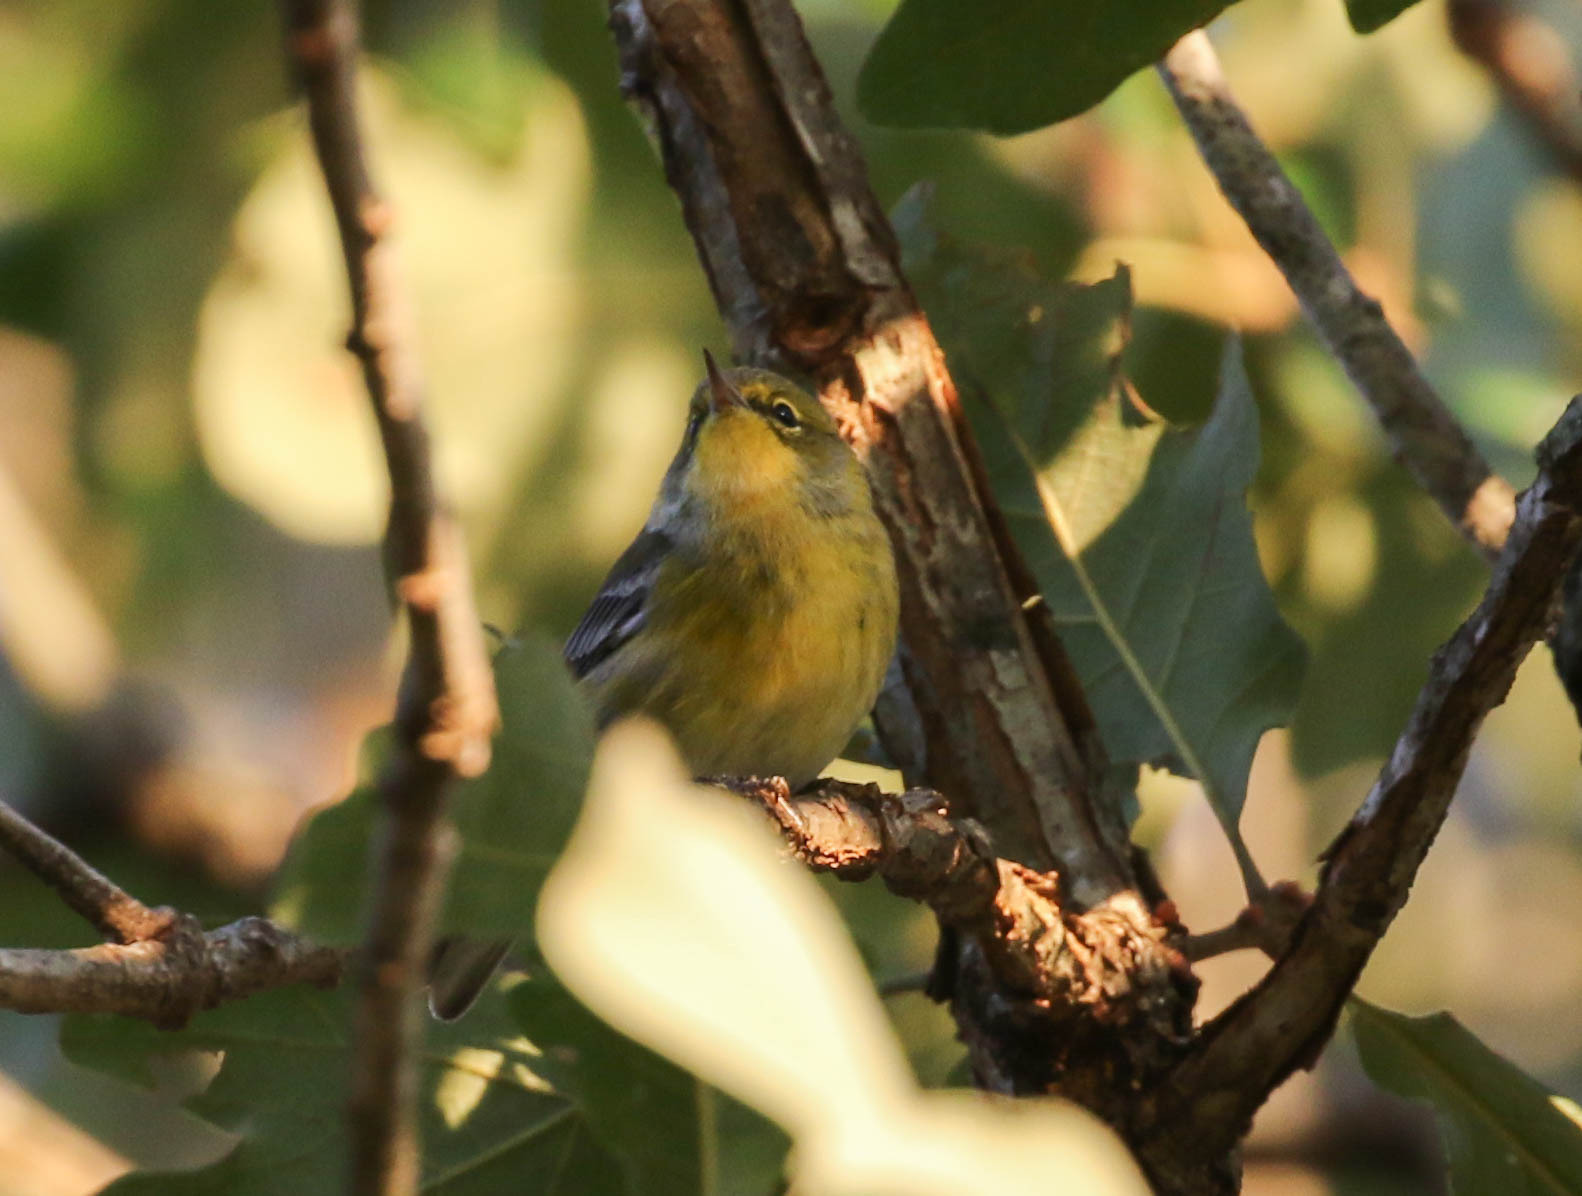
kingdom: Animalia
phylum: Chordata
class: Aves
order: Passeriformes
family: Parulidae
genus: Setophaga
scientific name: Setophaga pinus
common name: Pine warbler
